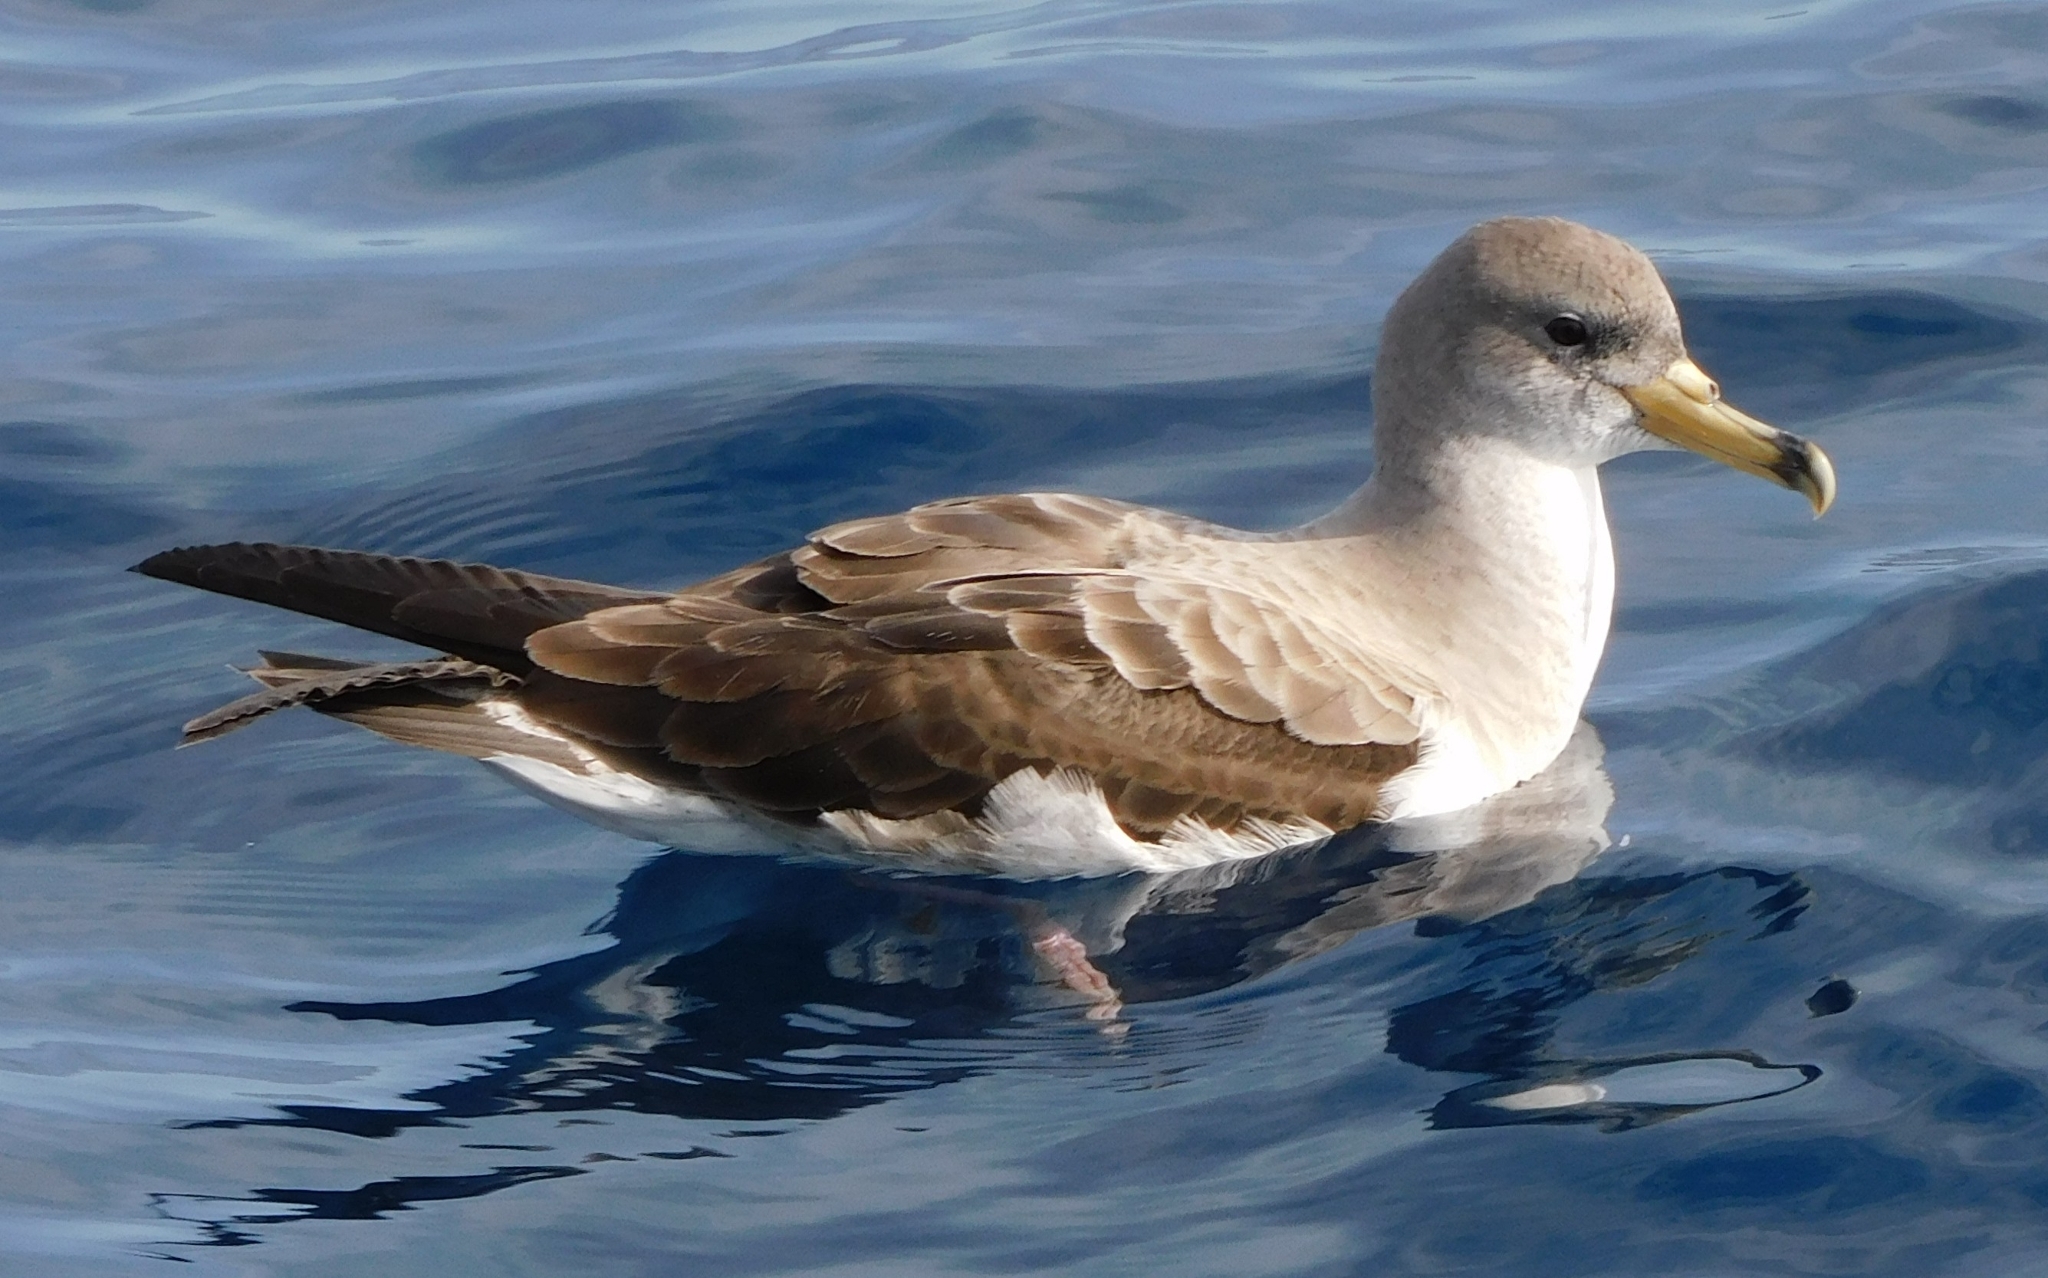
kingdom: Animalia
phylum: Chordata
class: Aves
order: Procellariiformes
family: Procellariidae
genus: Calonectris
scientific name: Calonectris diomedea
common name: Cory's shearwater
